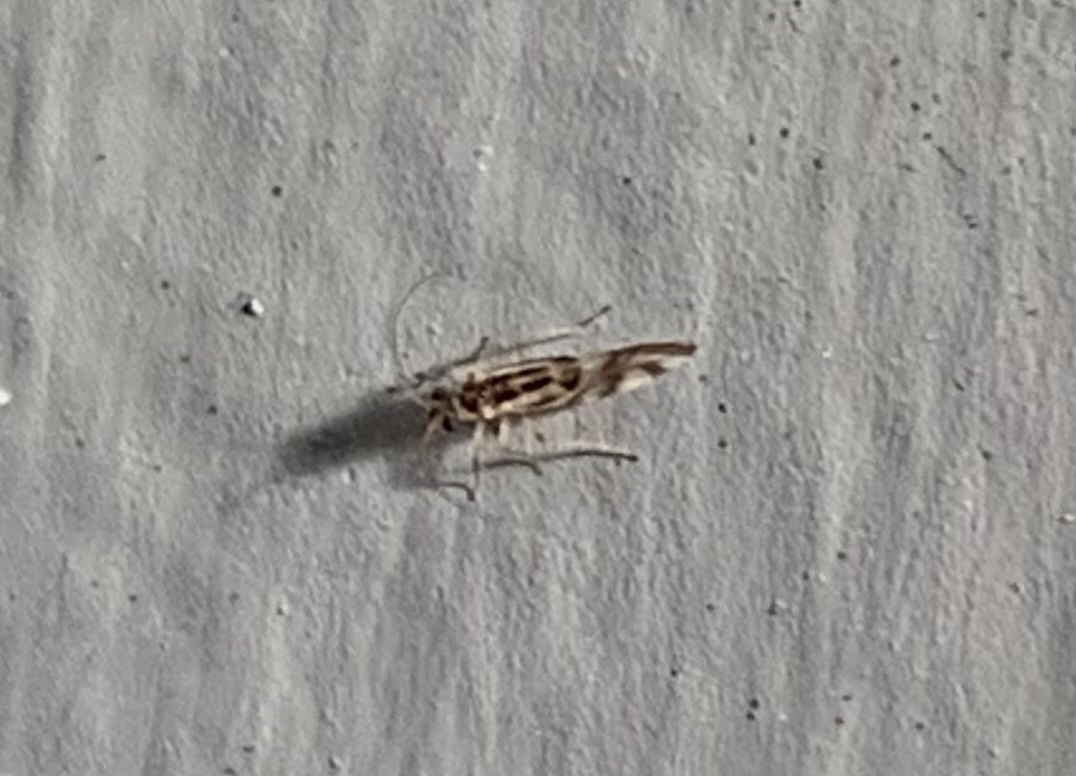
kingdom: Animalia
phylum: Arthropoda
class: Insecta
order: Psocodea
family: Stenopsocidae
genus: Graphopsocus
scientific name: Graphopsocus cruciatus
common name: Lizard bark louse
